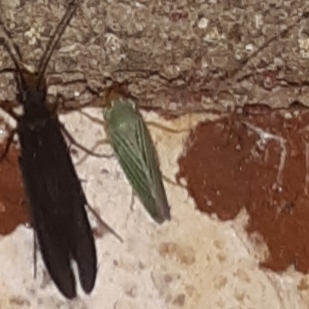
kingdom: Animalia
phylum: Arthropoda
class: Insecta
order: Hemiptera
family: Cicadellidae
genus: Xyphon
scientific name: Xyphon flaviceps
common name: Yellowheaded leafhopper
